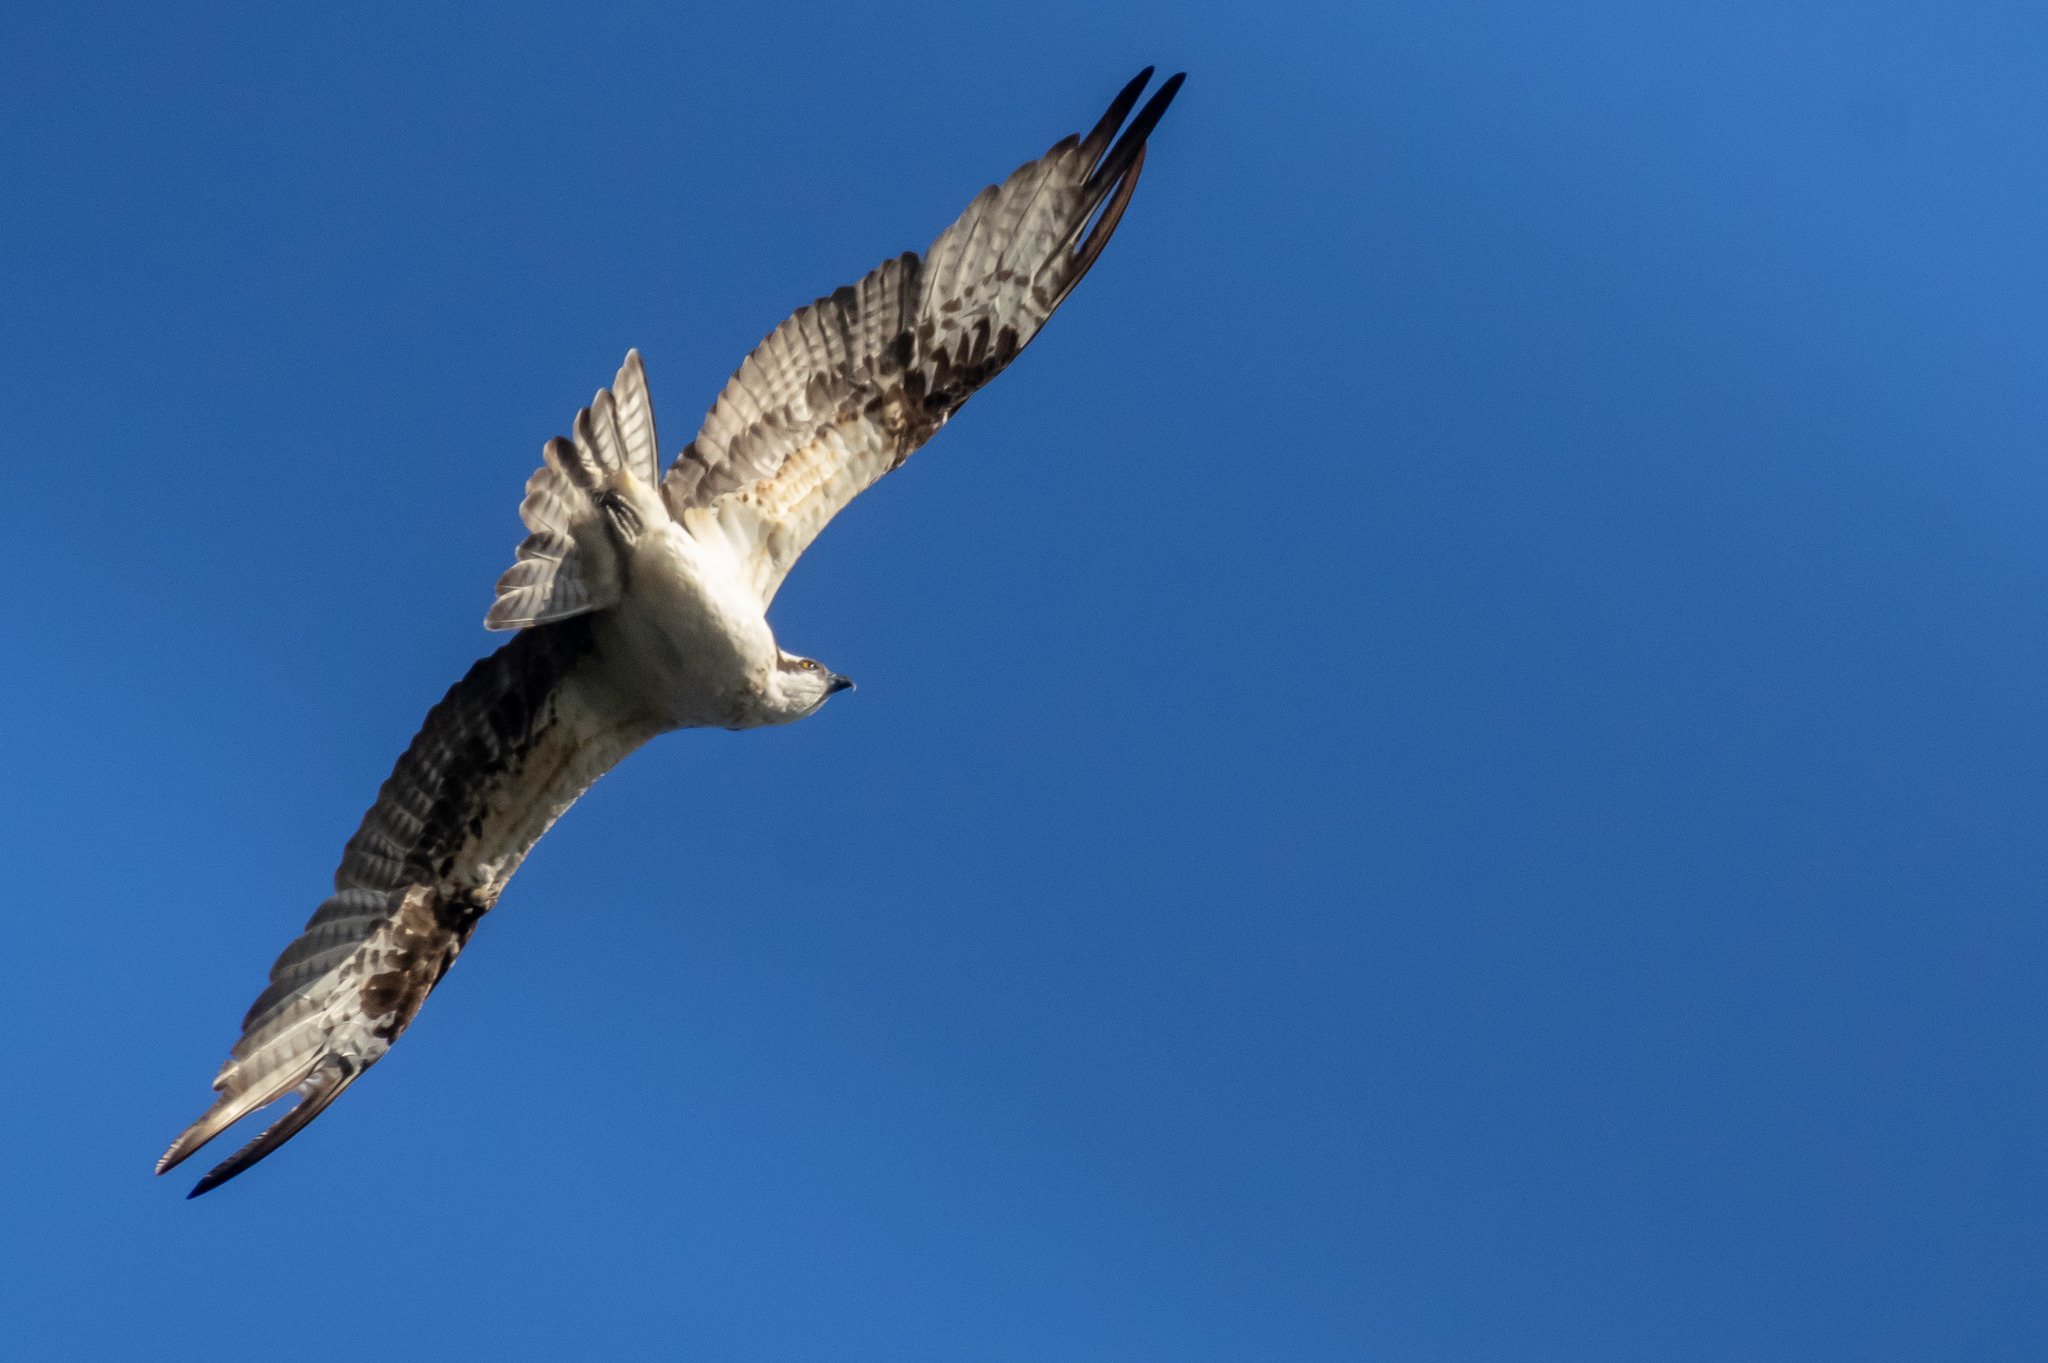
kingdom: Animalia
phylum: Chordata
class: Aves
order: Accipitriformes
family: Pandionidae
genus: Pandion
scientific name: Pandion haliaetus
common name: Osprey
